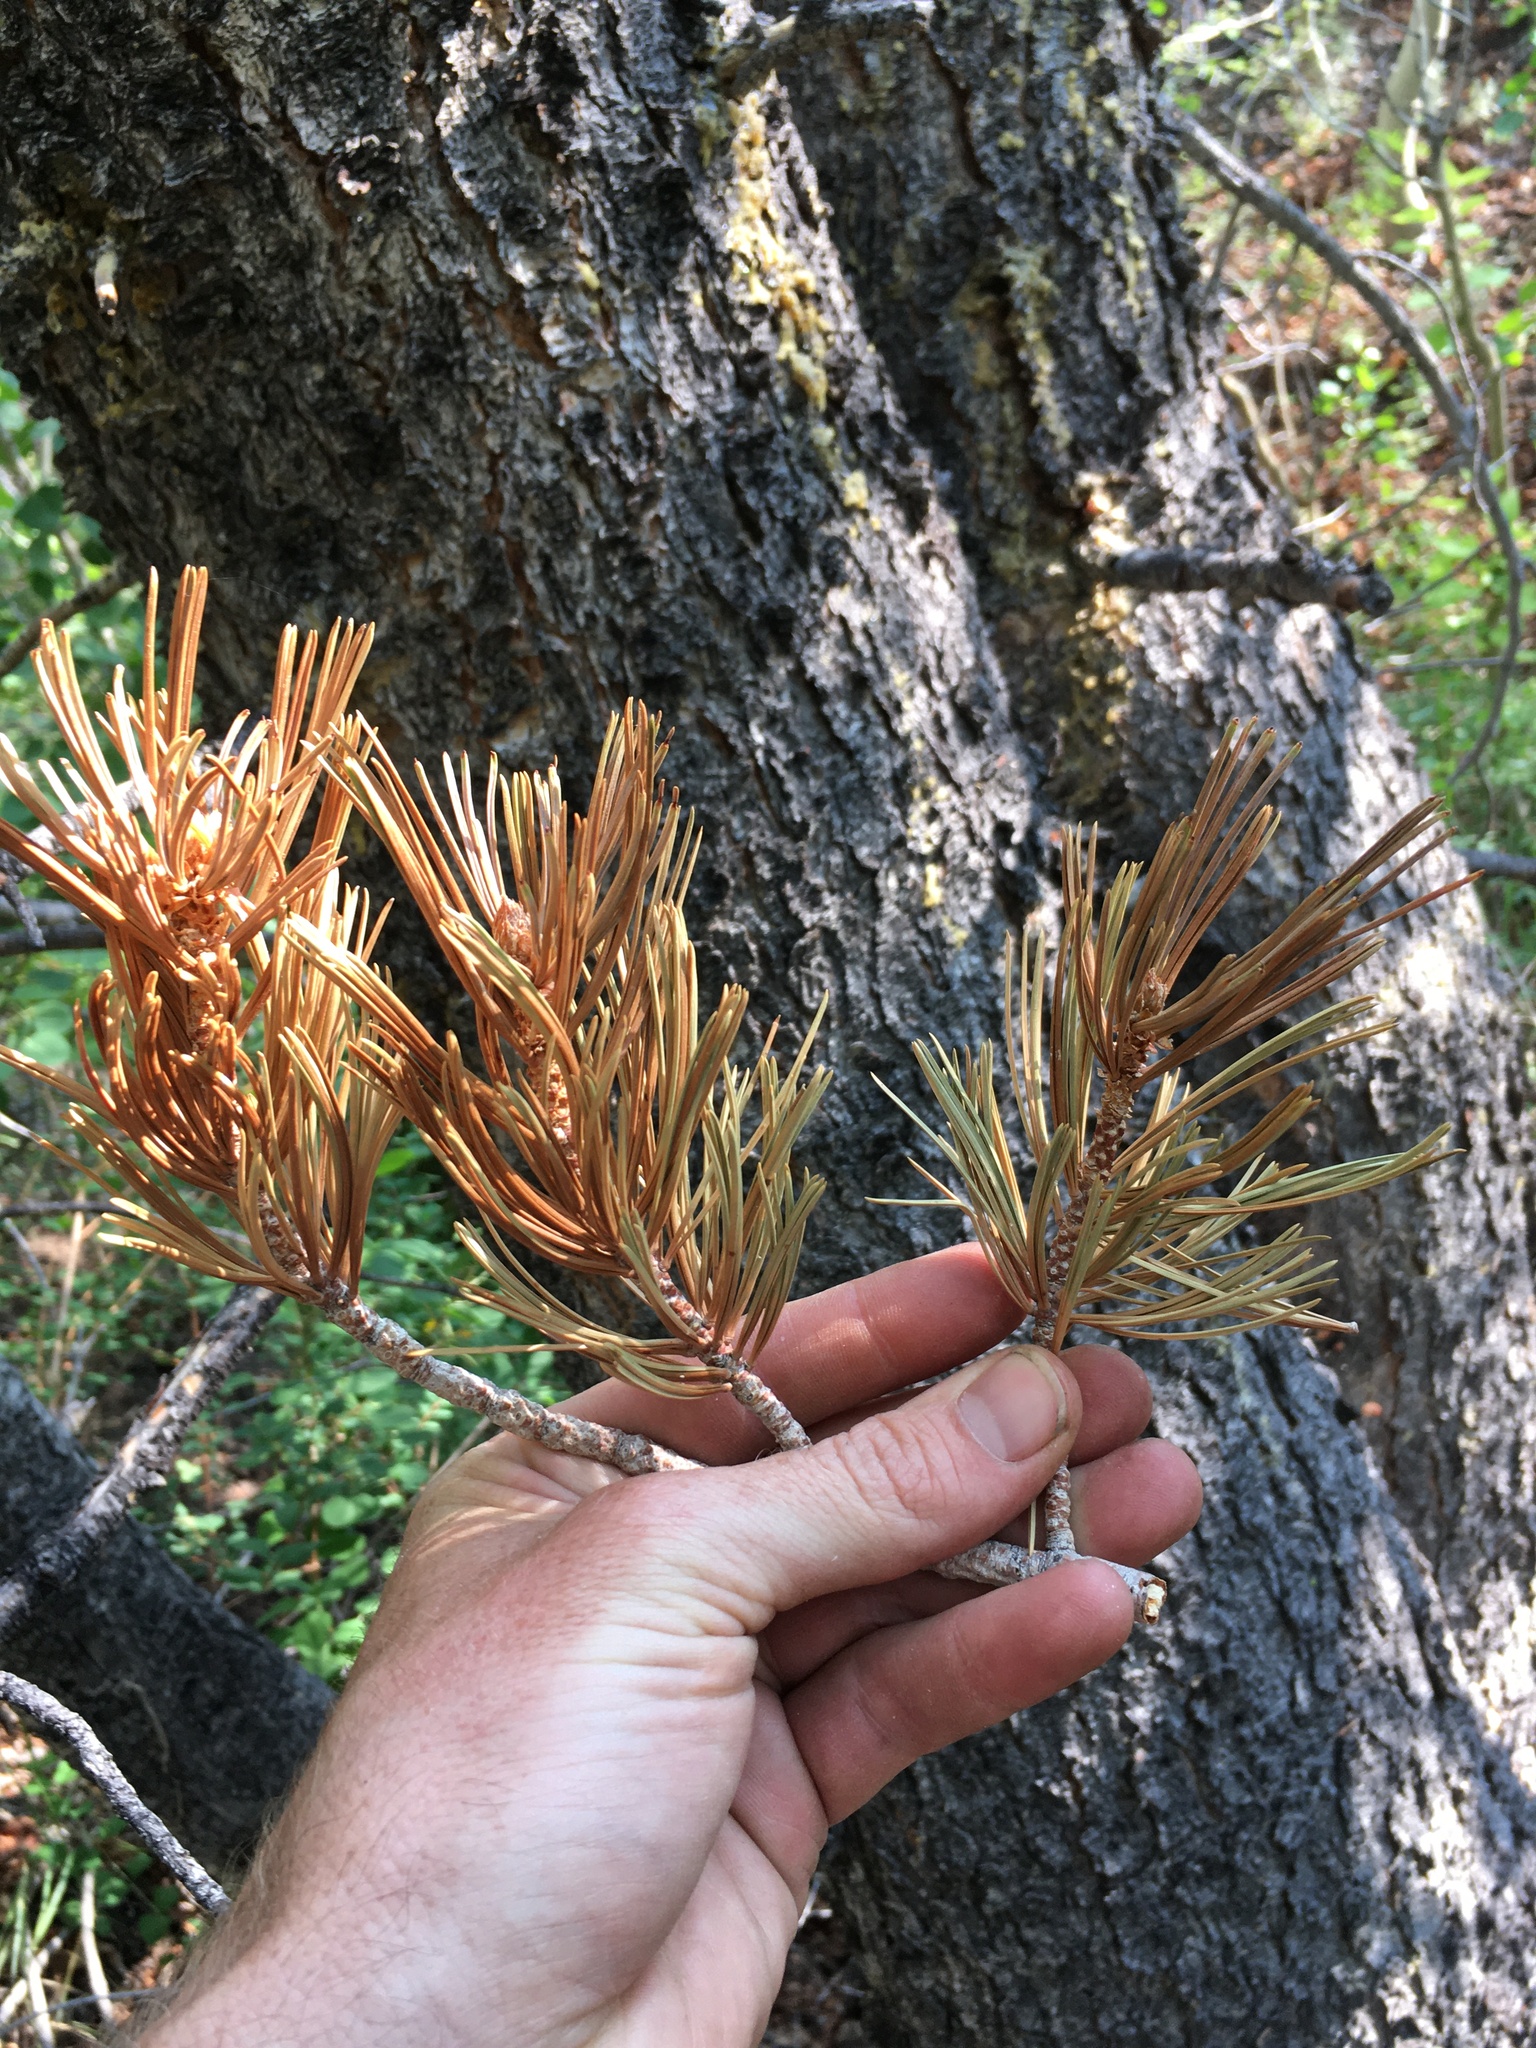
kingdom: Plantae
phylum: Tracheophyta
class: Pinopsida
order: Pinales
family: Pinaceae
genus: Pinus
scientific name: Pinus flexilis
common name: Limber pine
